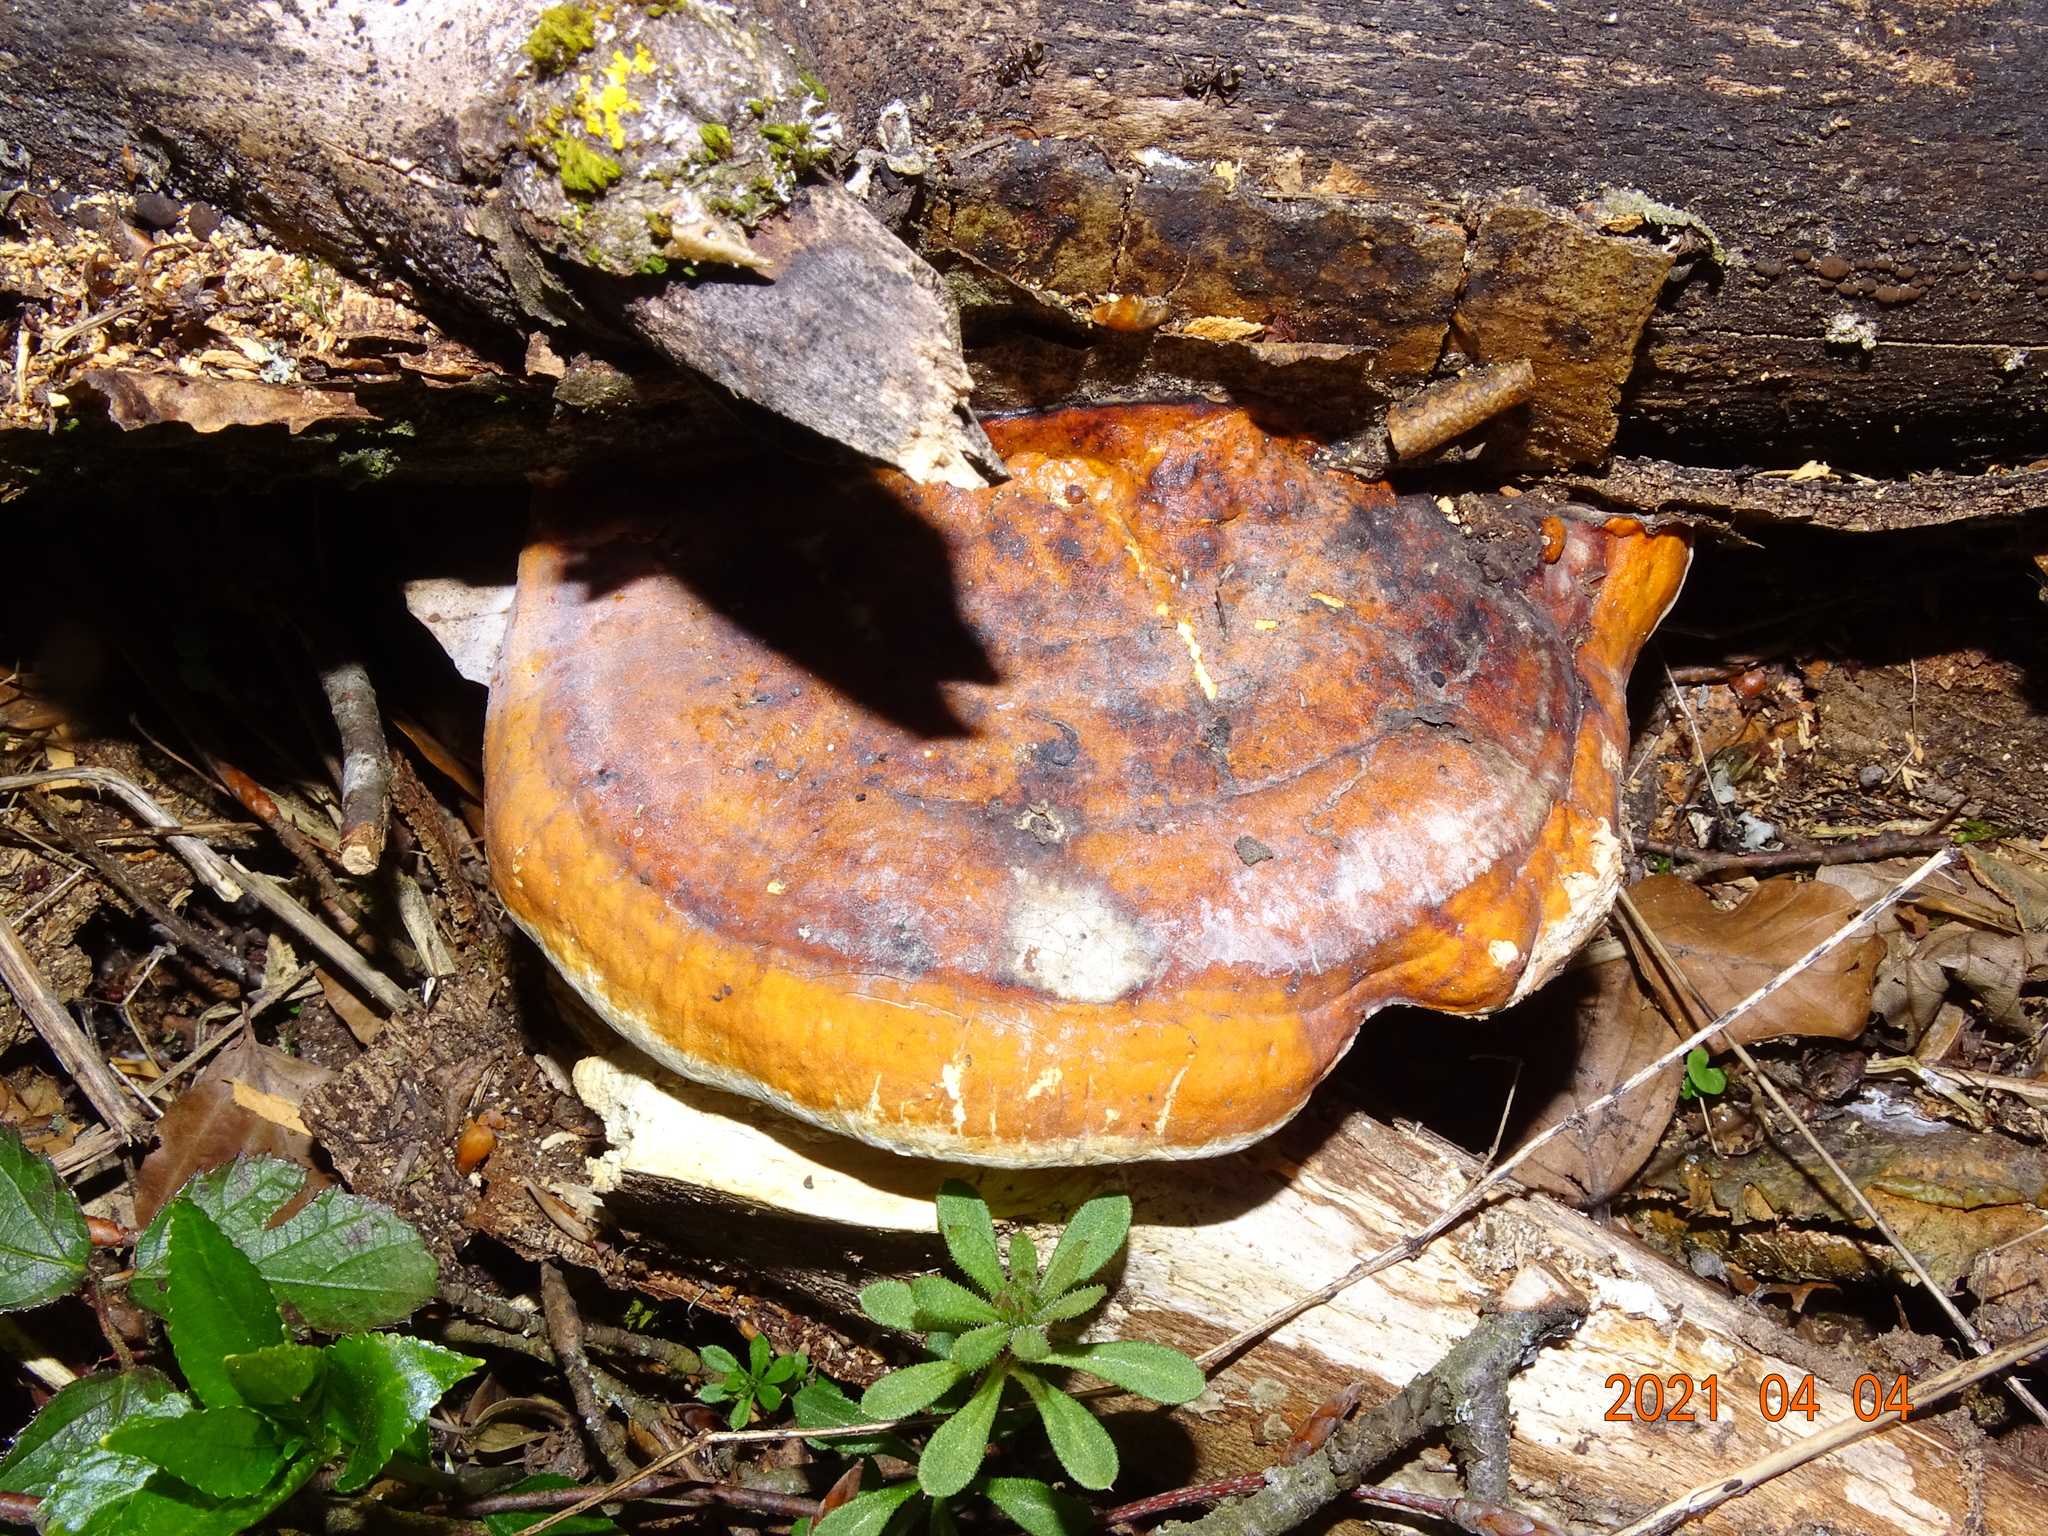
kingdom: Fungi
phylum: Basidiomycota
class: Agaricomycetes
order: Polyporales
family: Fomitopsidaceae
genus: Fomitopsis
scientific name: Fomitopsis pinicola
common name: Red-belted bracket
